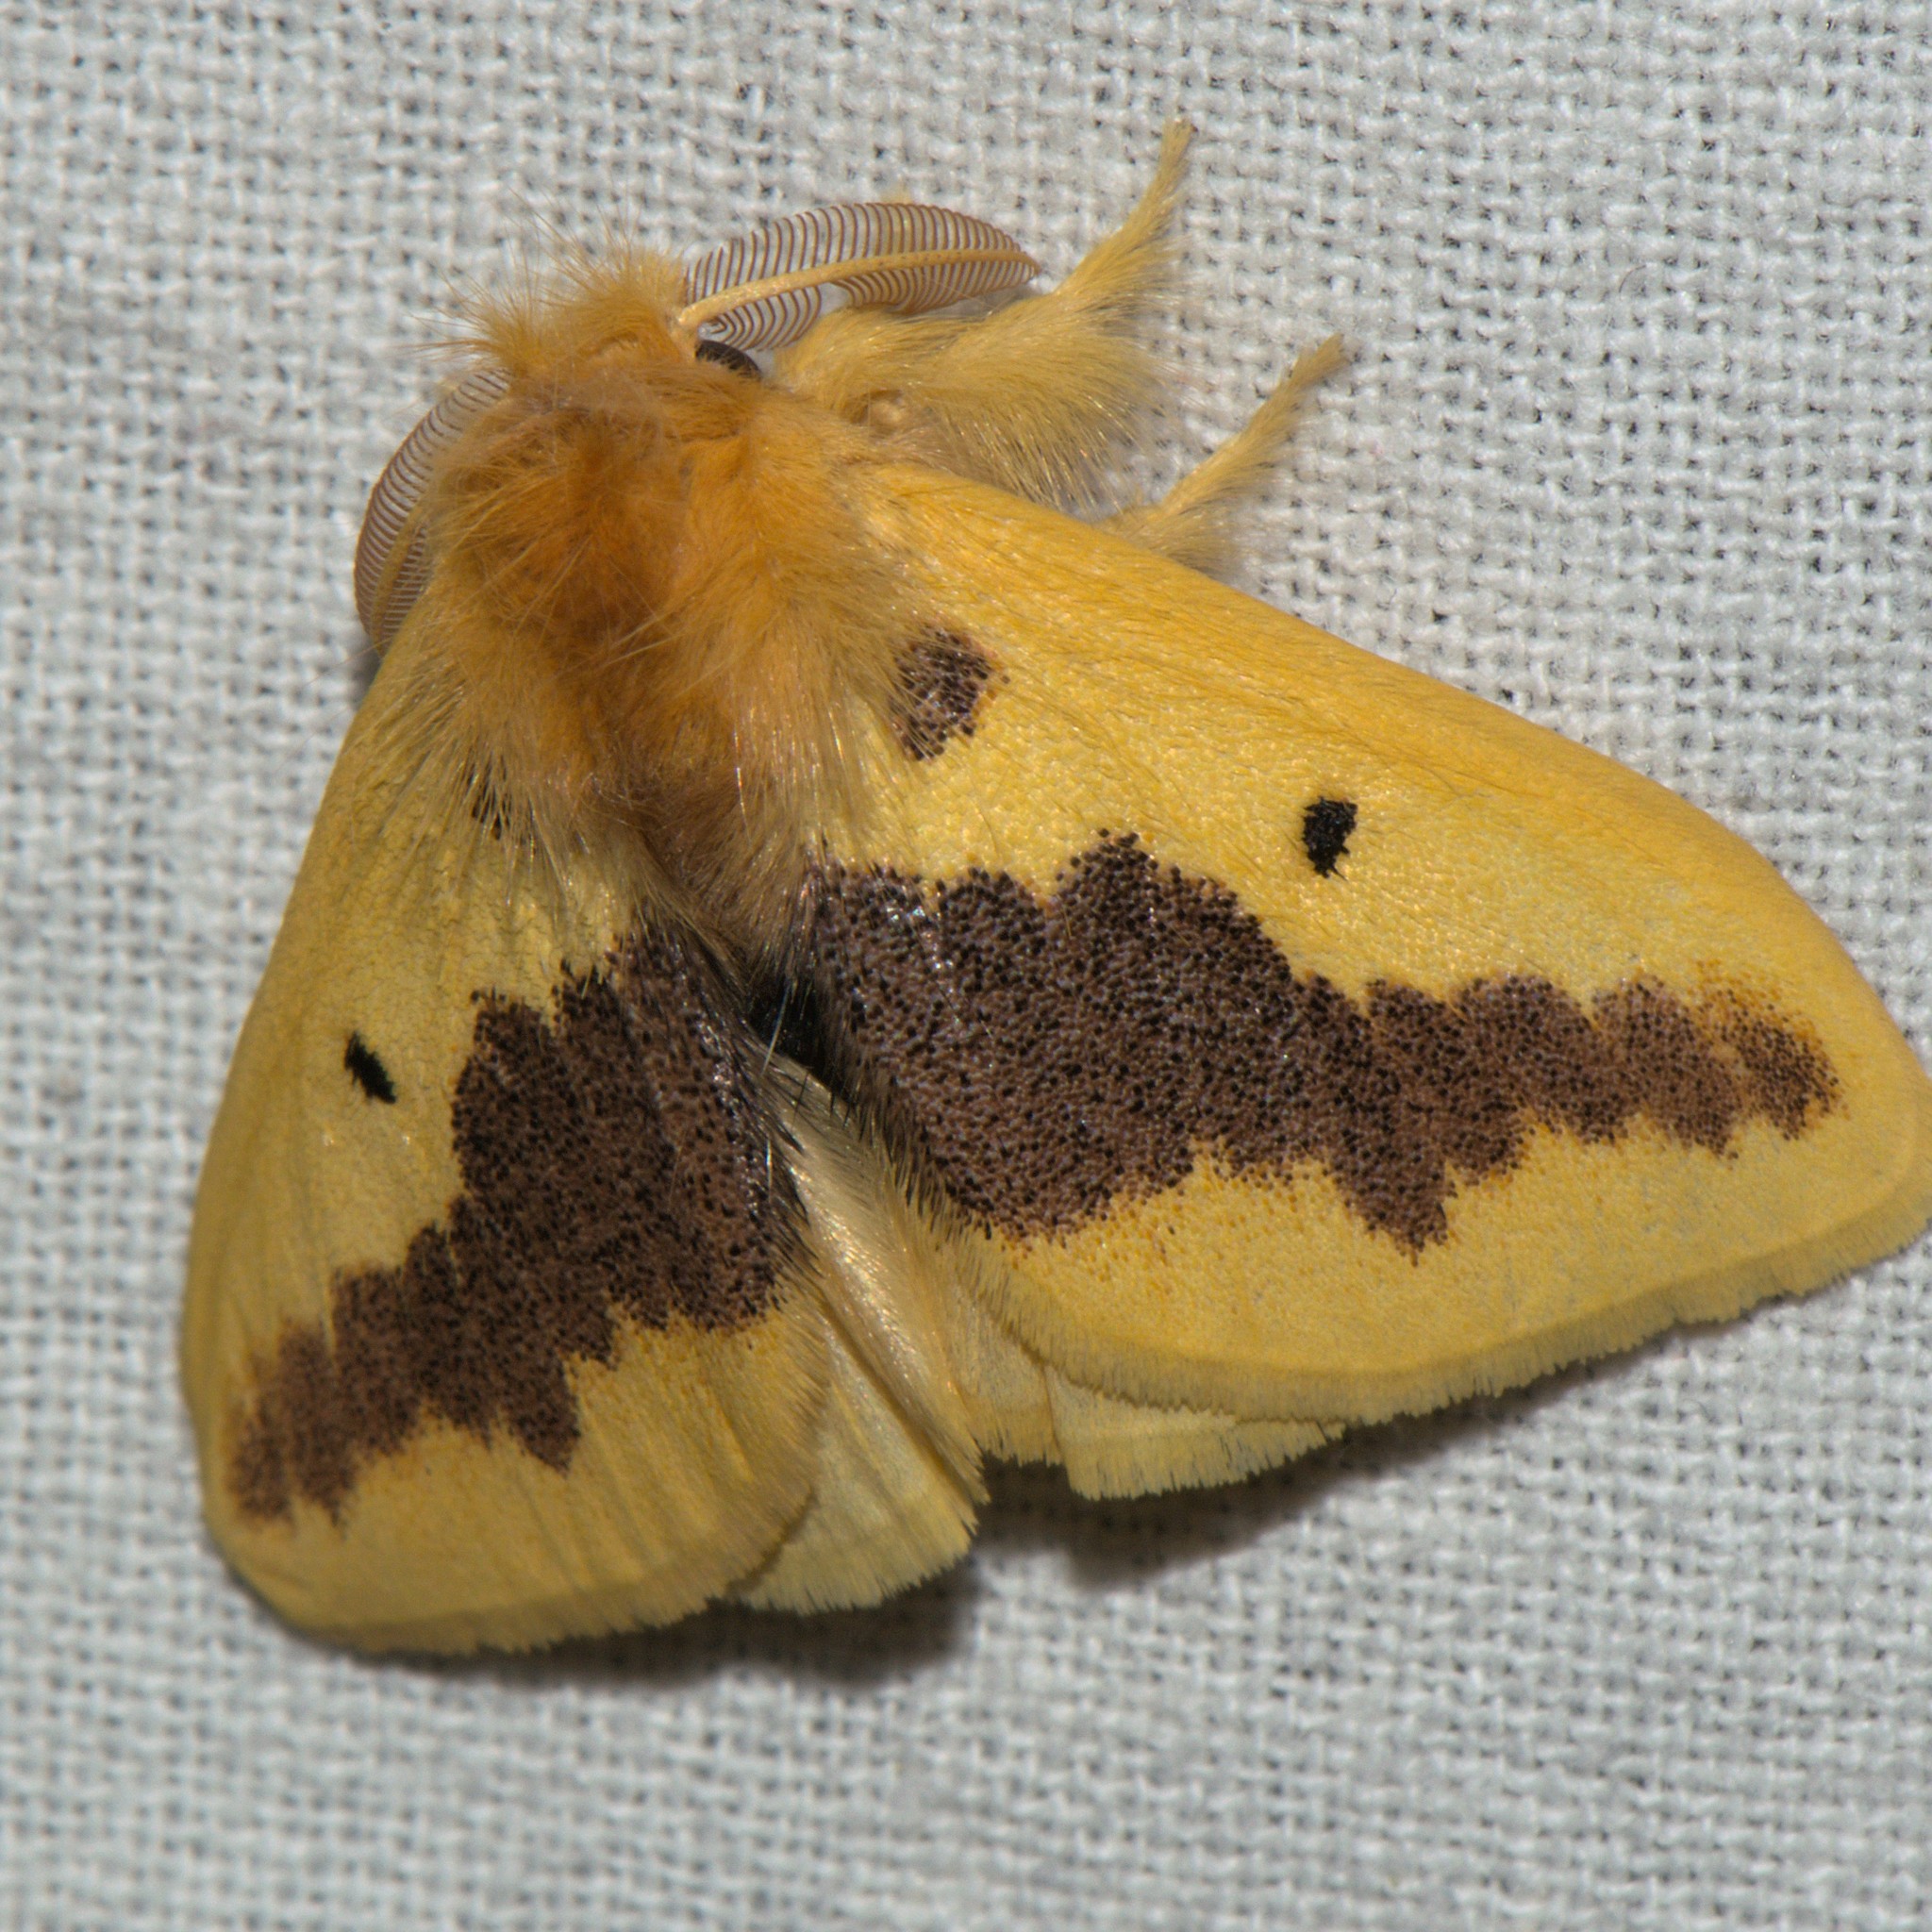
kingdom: Animalia
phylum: Arthropoda
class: Insecta
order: Lepidoptera
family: Erebidae
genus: Euproctis
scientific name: Euproctis varia
